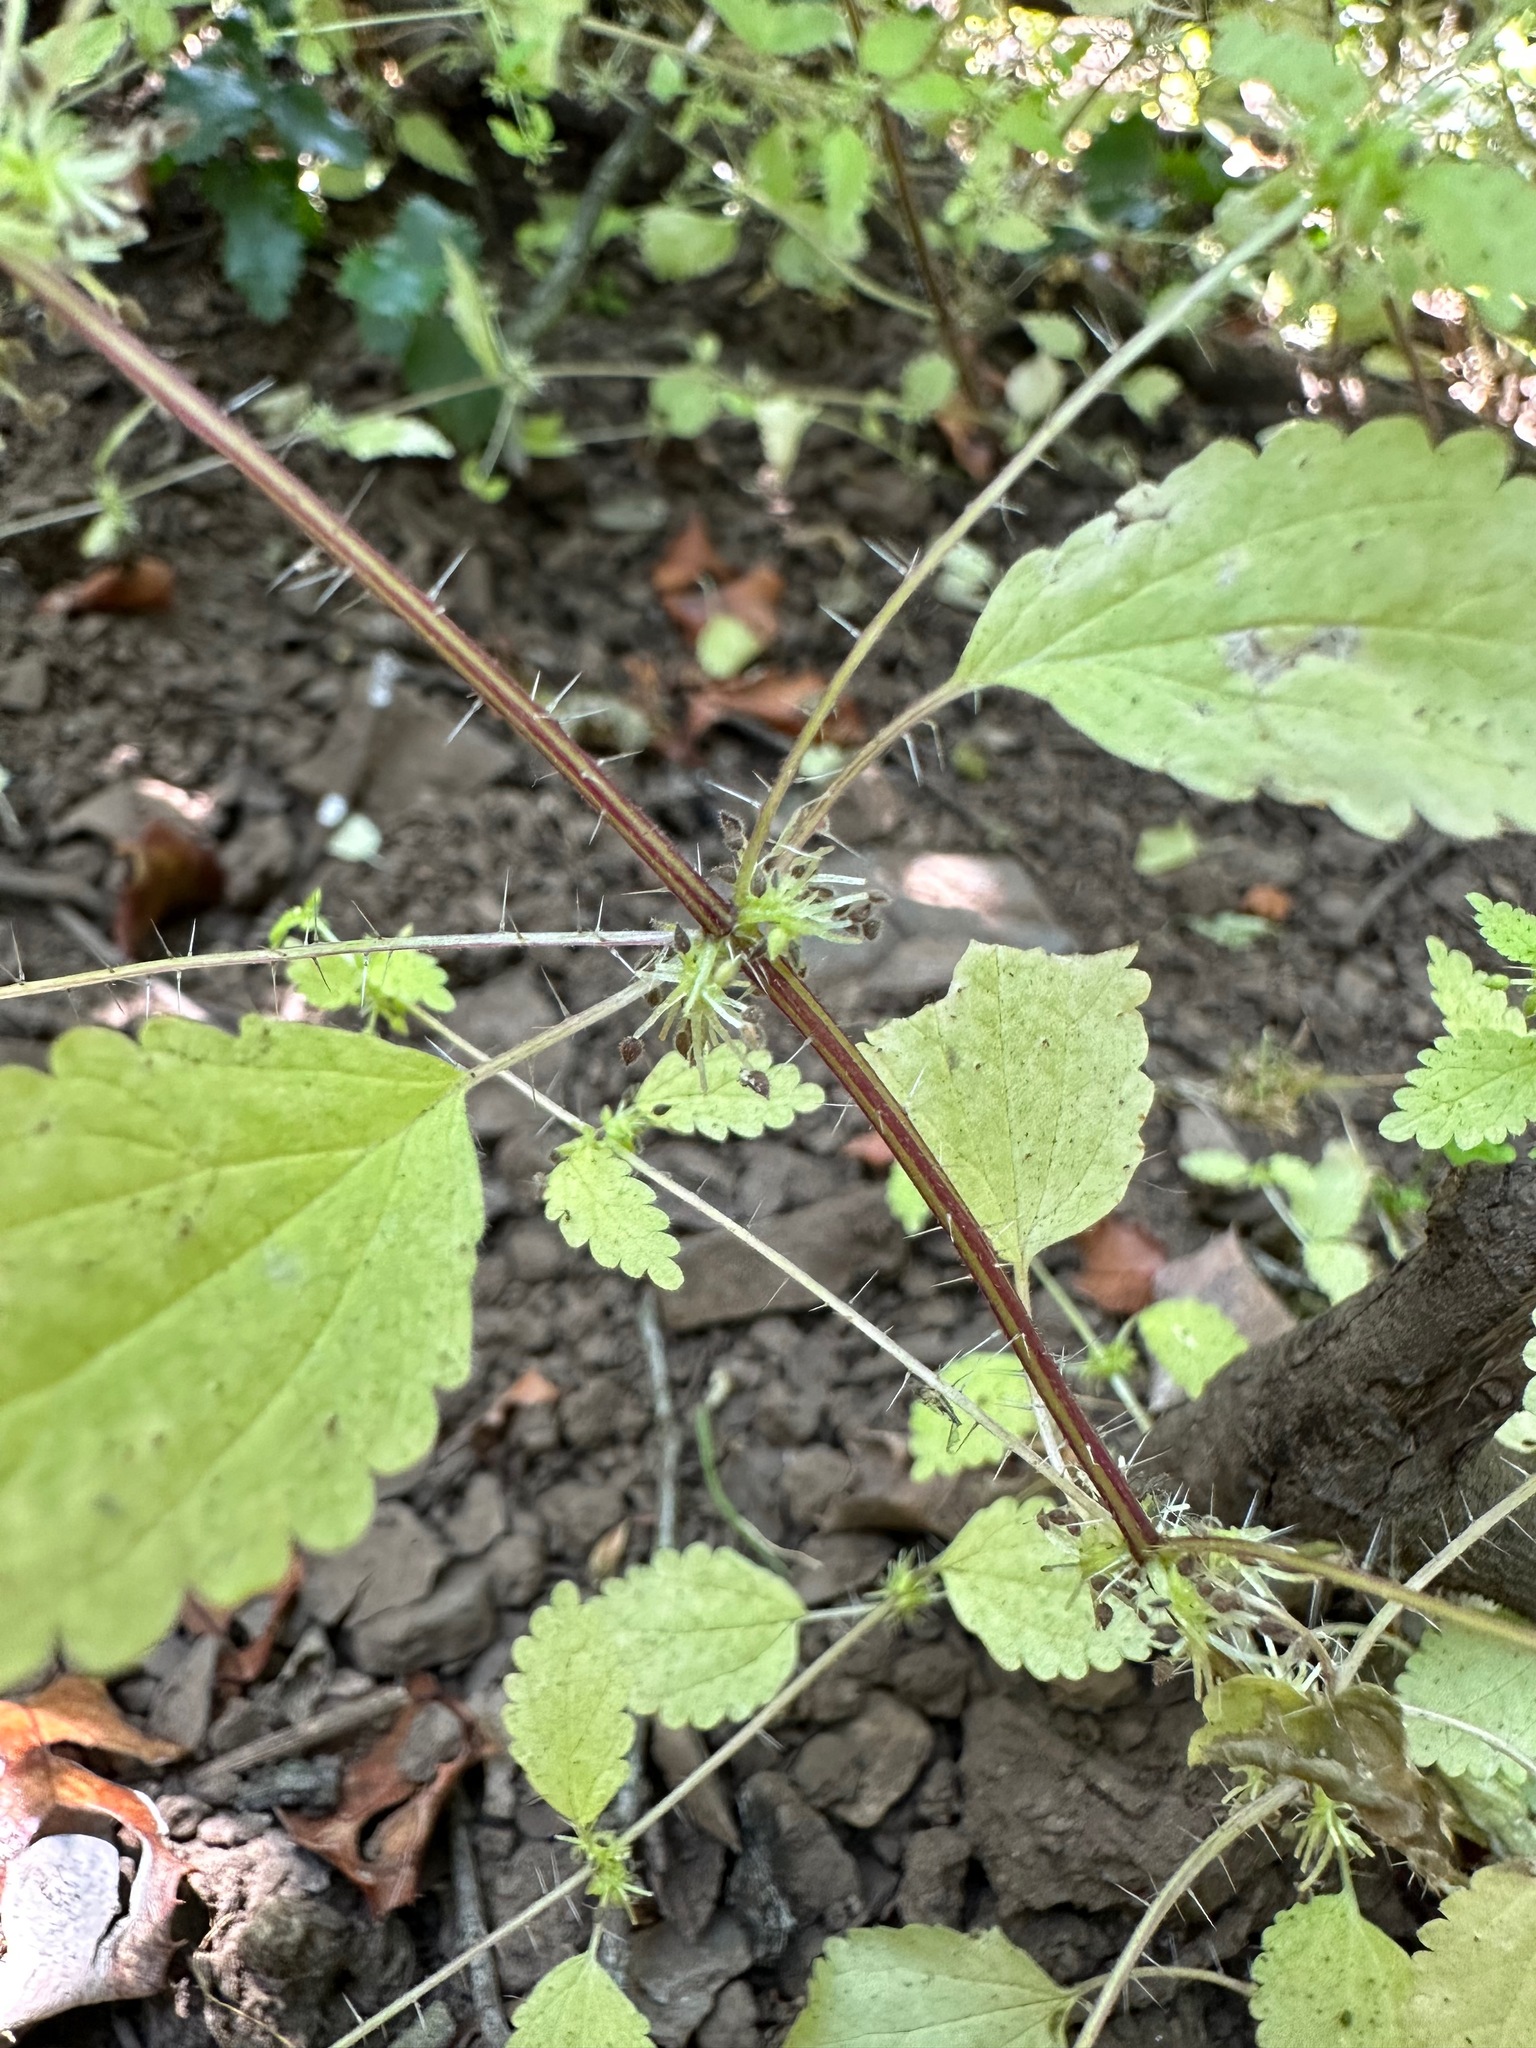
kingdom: Plantae
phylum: Tracheophyta
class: Magnoliopsida
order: Rosales
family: Urticaceae
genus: Hesperocnide
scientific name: Hesperocnide tenella
